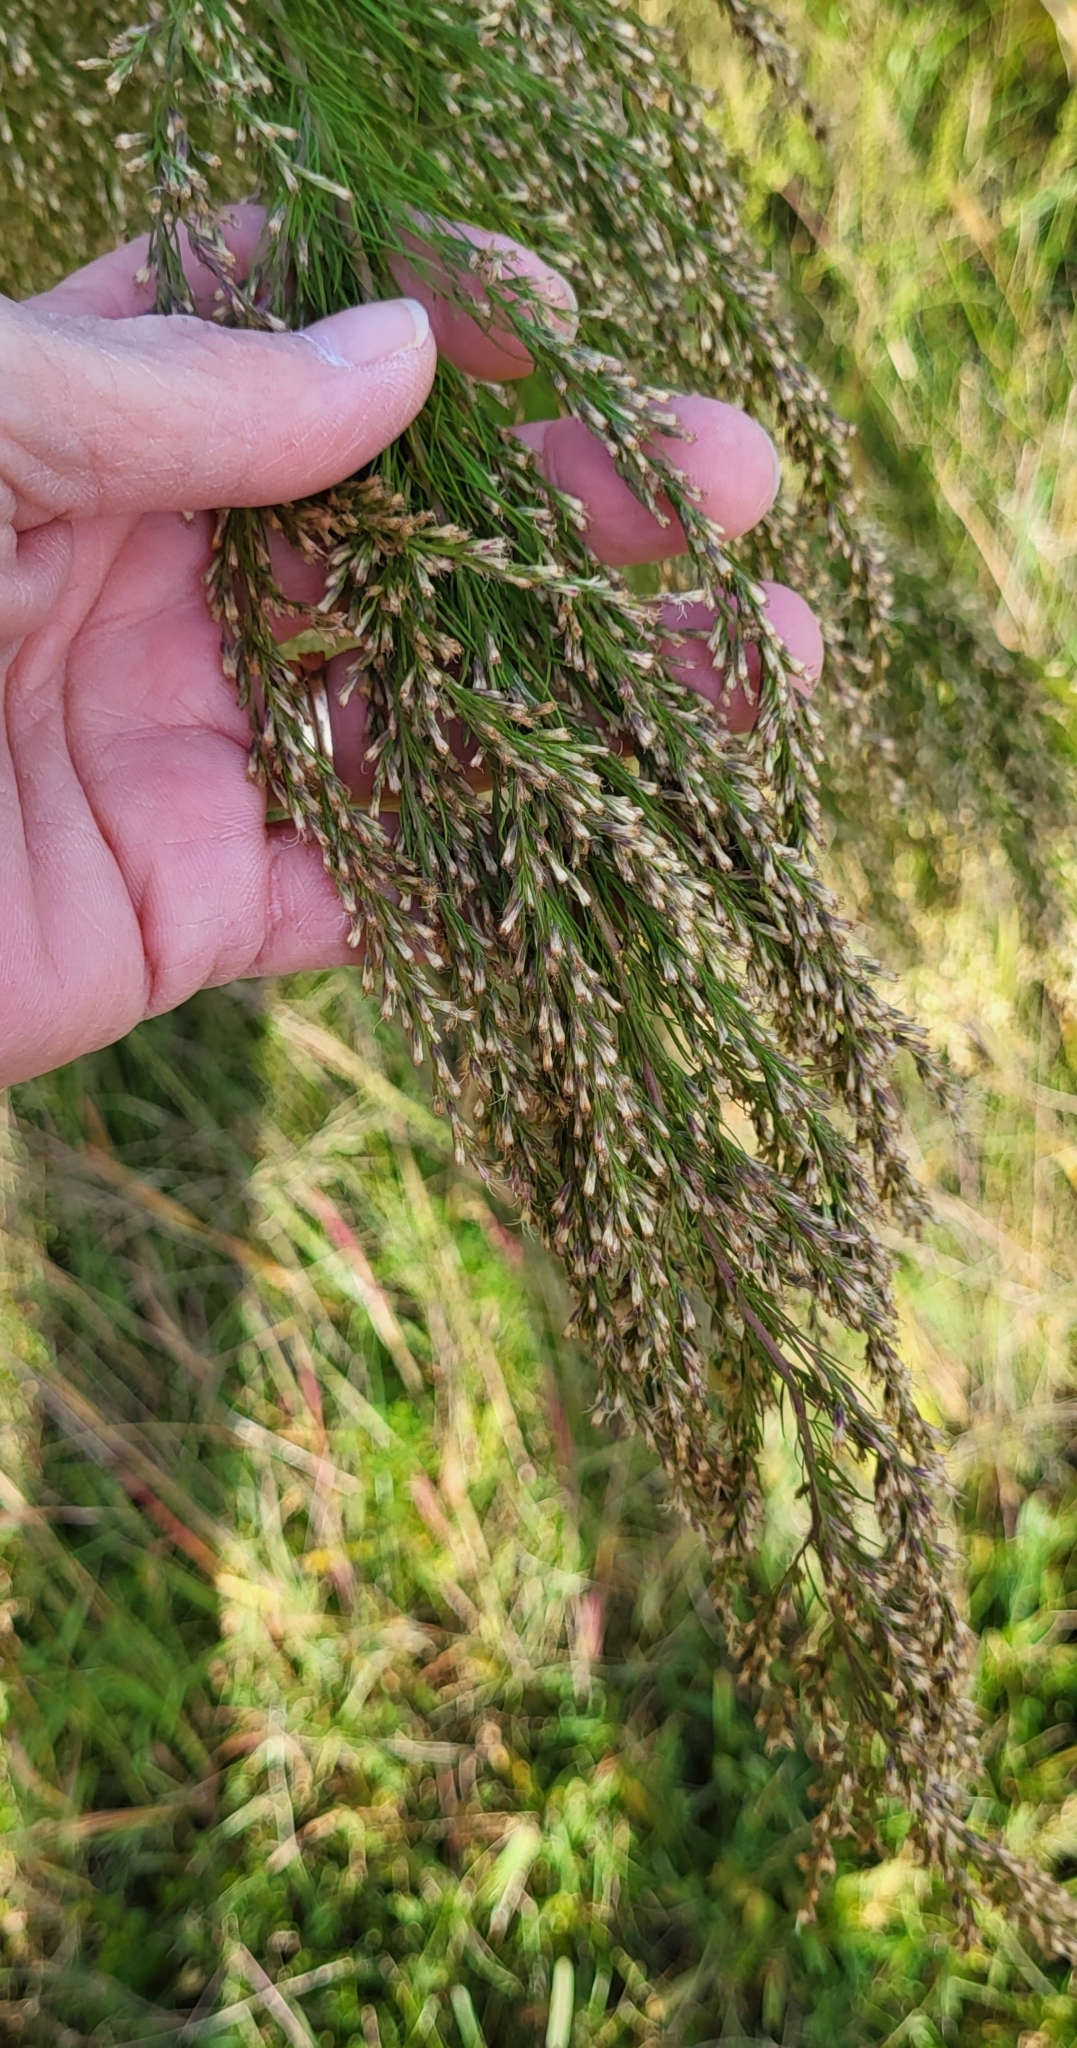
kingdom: Plantae
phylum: Tracheophyta
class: Magnoliopsida
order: Asterales
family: Asteraceae
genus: Eupatorium
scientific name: Eupatorium capillifolium
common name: Dog-fennel
